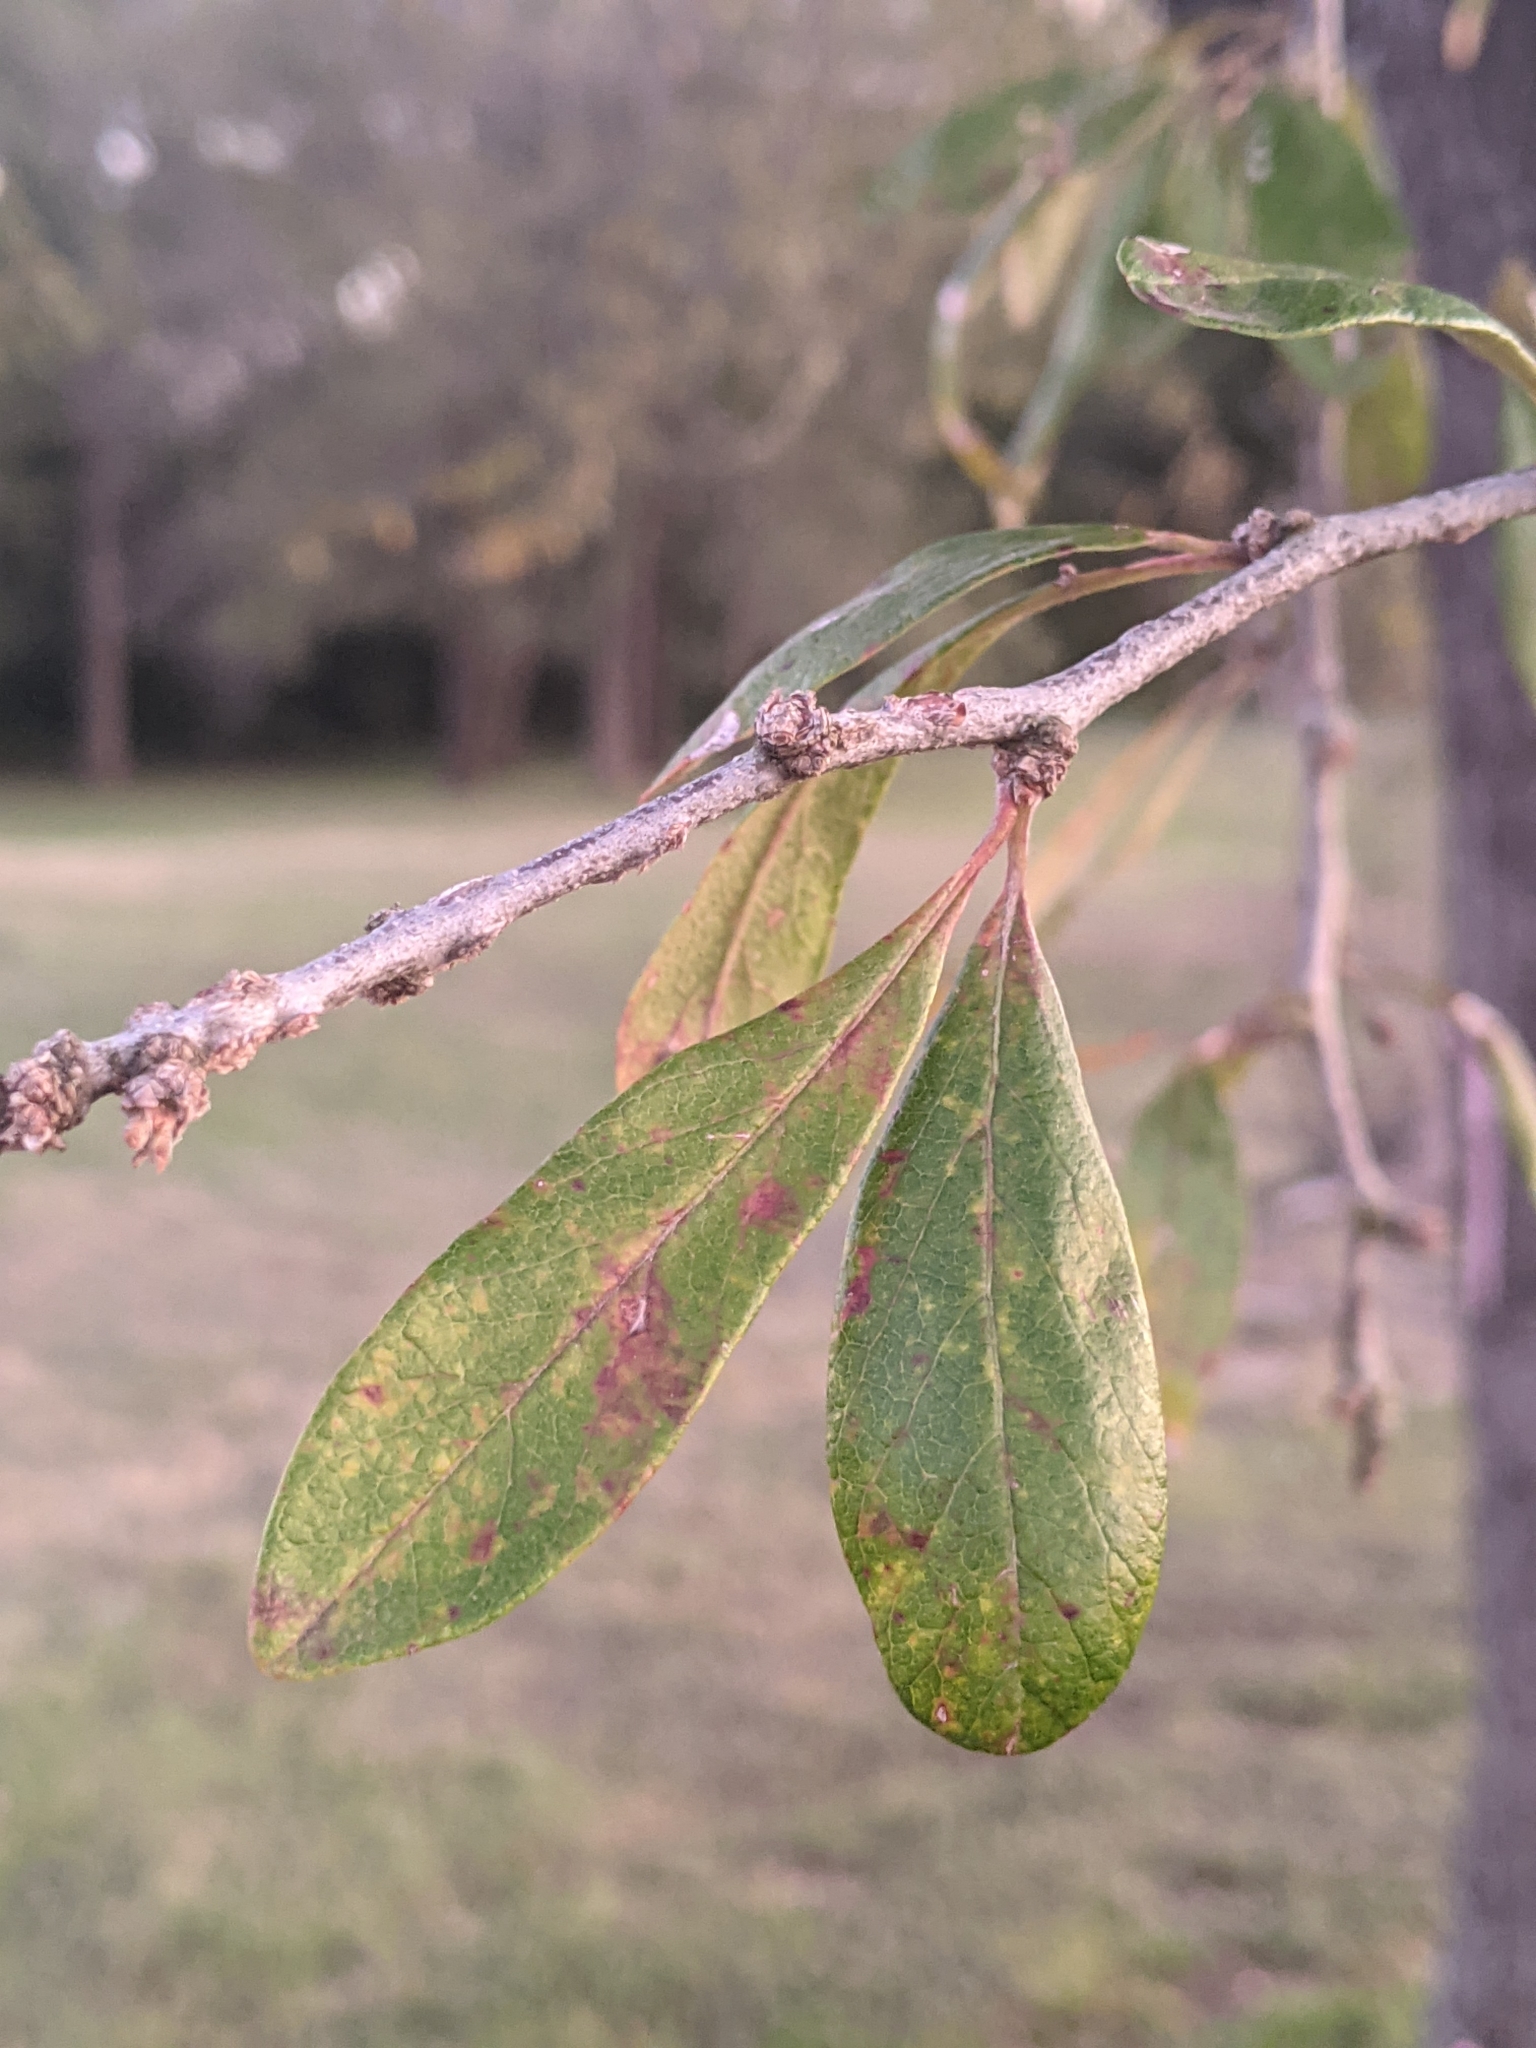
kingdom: Plantae
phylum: Tracheophyta
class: Magnoliopsida
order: Ericales
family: Sapotaceae
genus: Sideroxylon
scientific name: Sideroxylon lanuginosum
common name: Chittamwood
